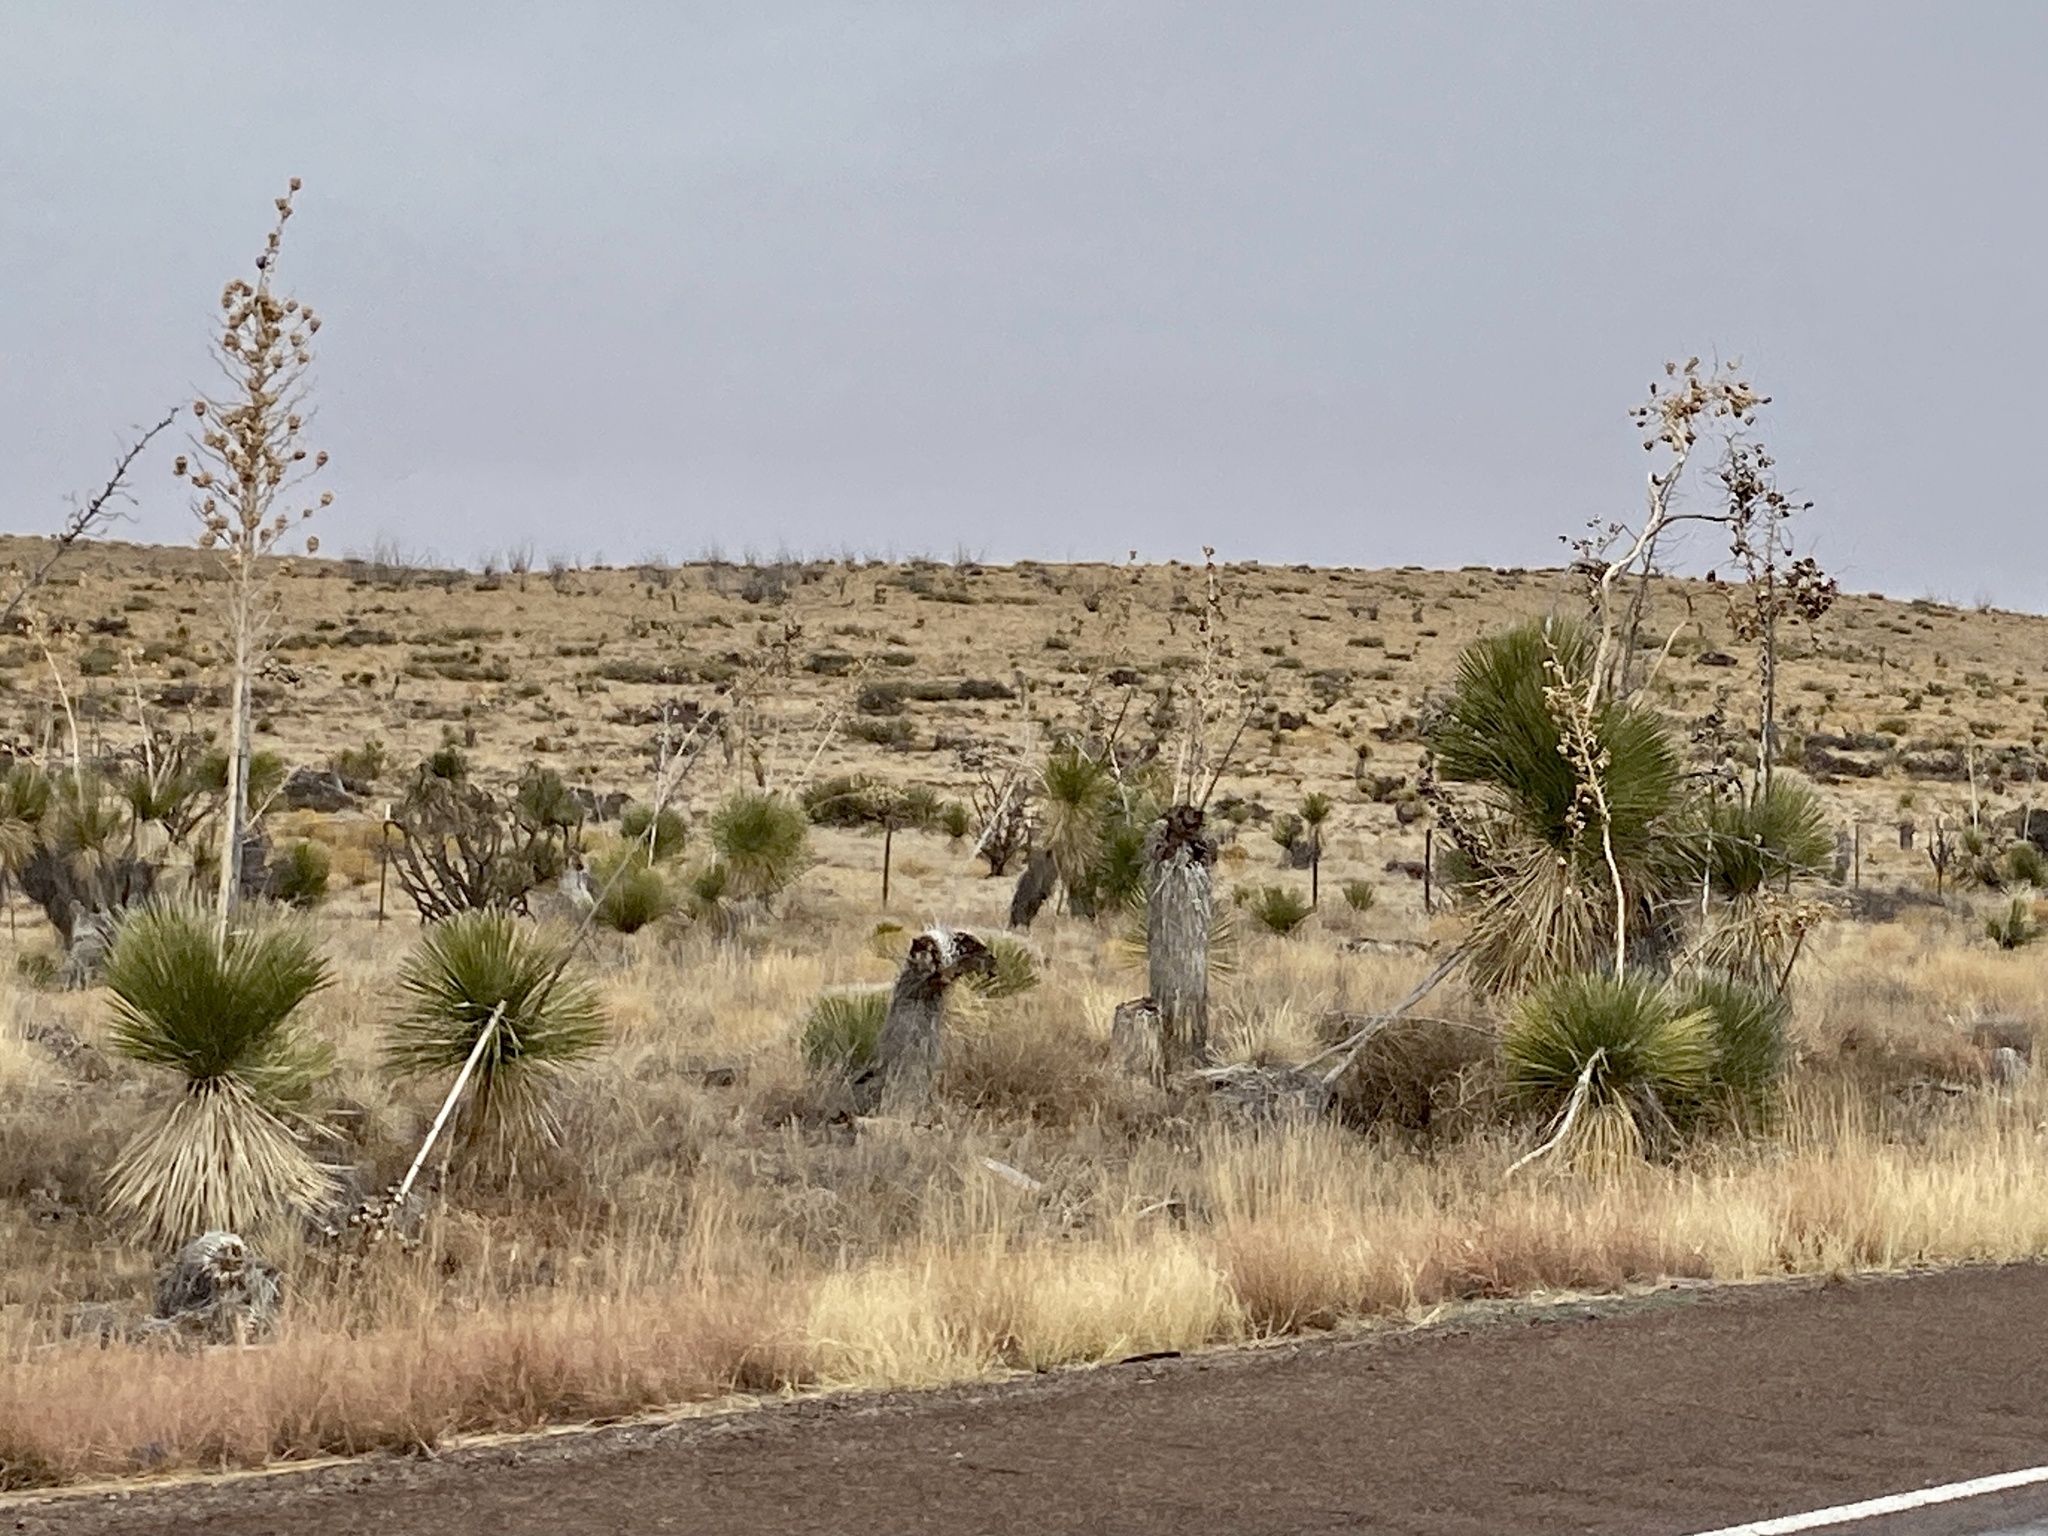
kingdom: Plantae
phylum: Tracheophyta
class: Liliopsida
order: Asparagales
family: Asparagaceae
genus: Yucca
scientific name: Yucca elata
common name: Palmella
